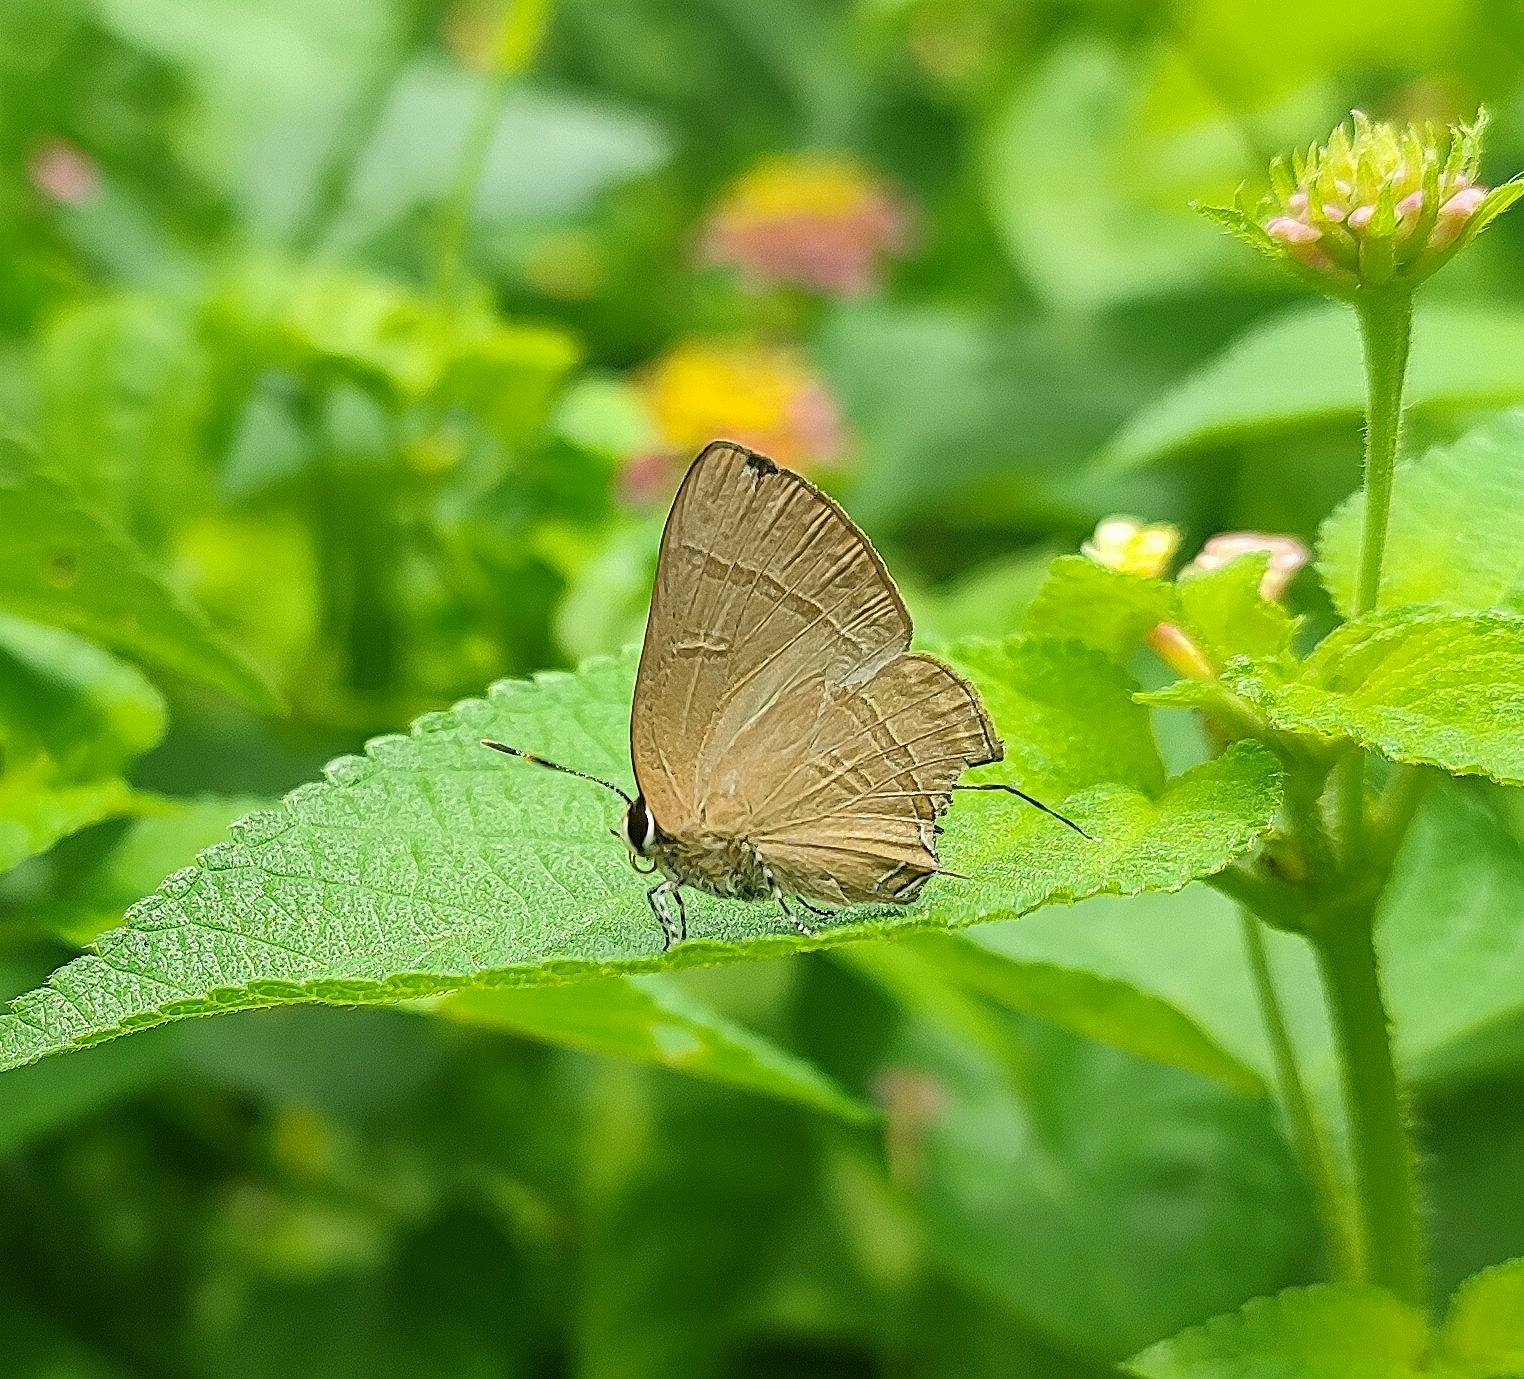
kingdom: Animalia
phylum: Arthropoda
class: Insecta
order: Lepidoptera
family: Lycaenidae
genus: Rapala
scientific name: Rapala manea
